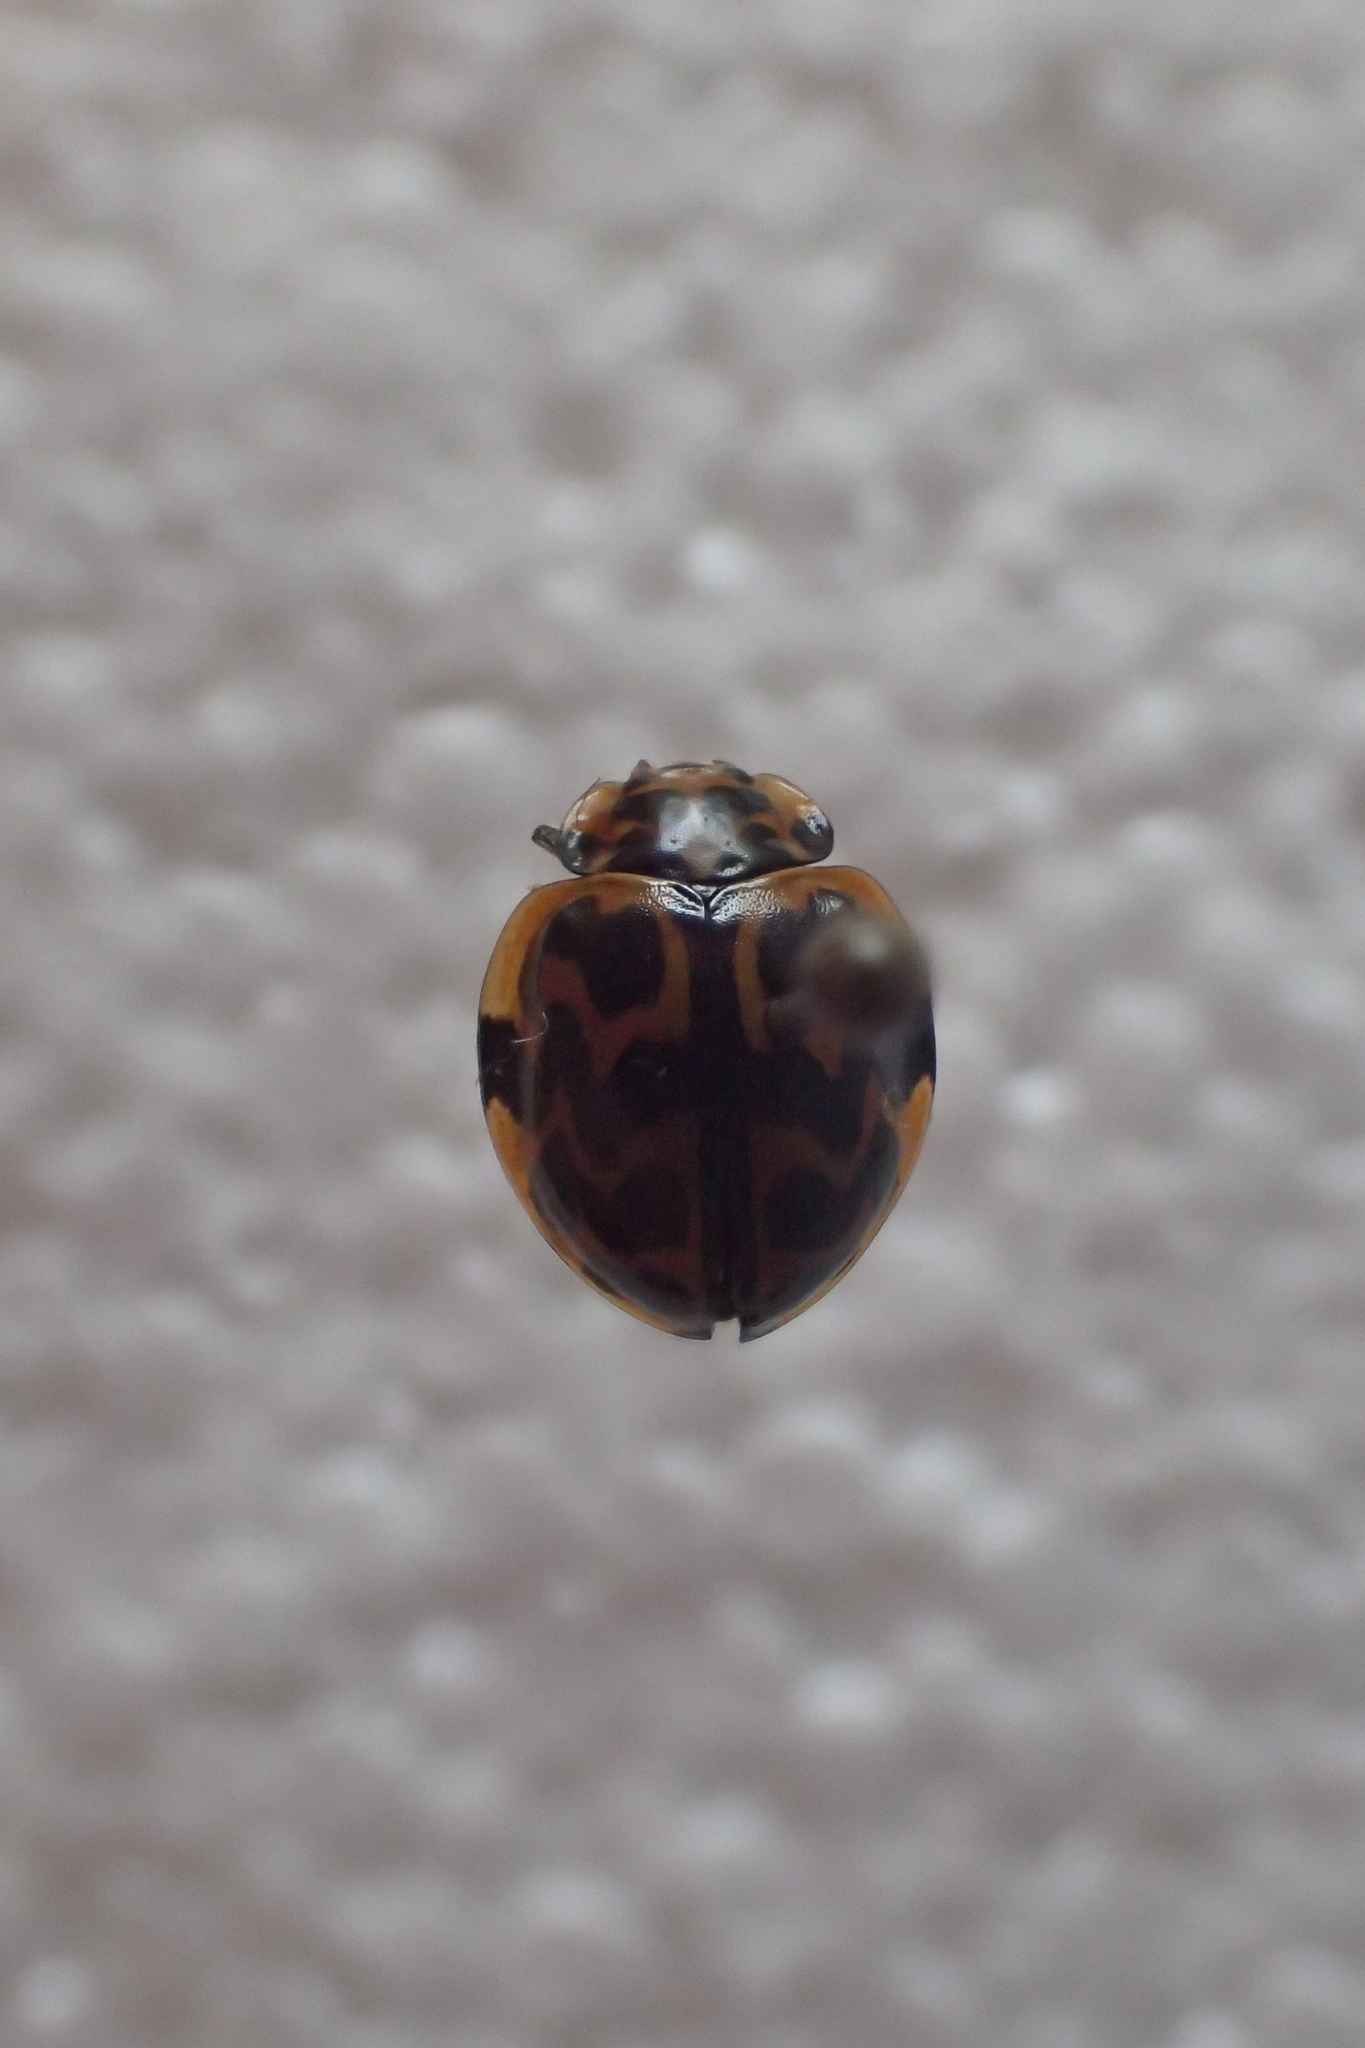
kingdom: Animalia
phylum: Arthropoda
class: Insecta
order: Coleoptera
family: Coccinellidae
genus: Cleobora
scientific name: Cleobora
